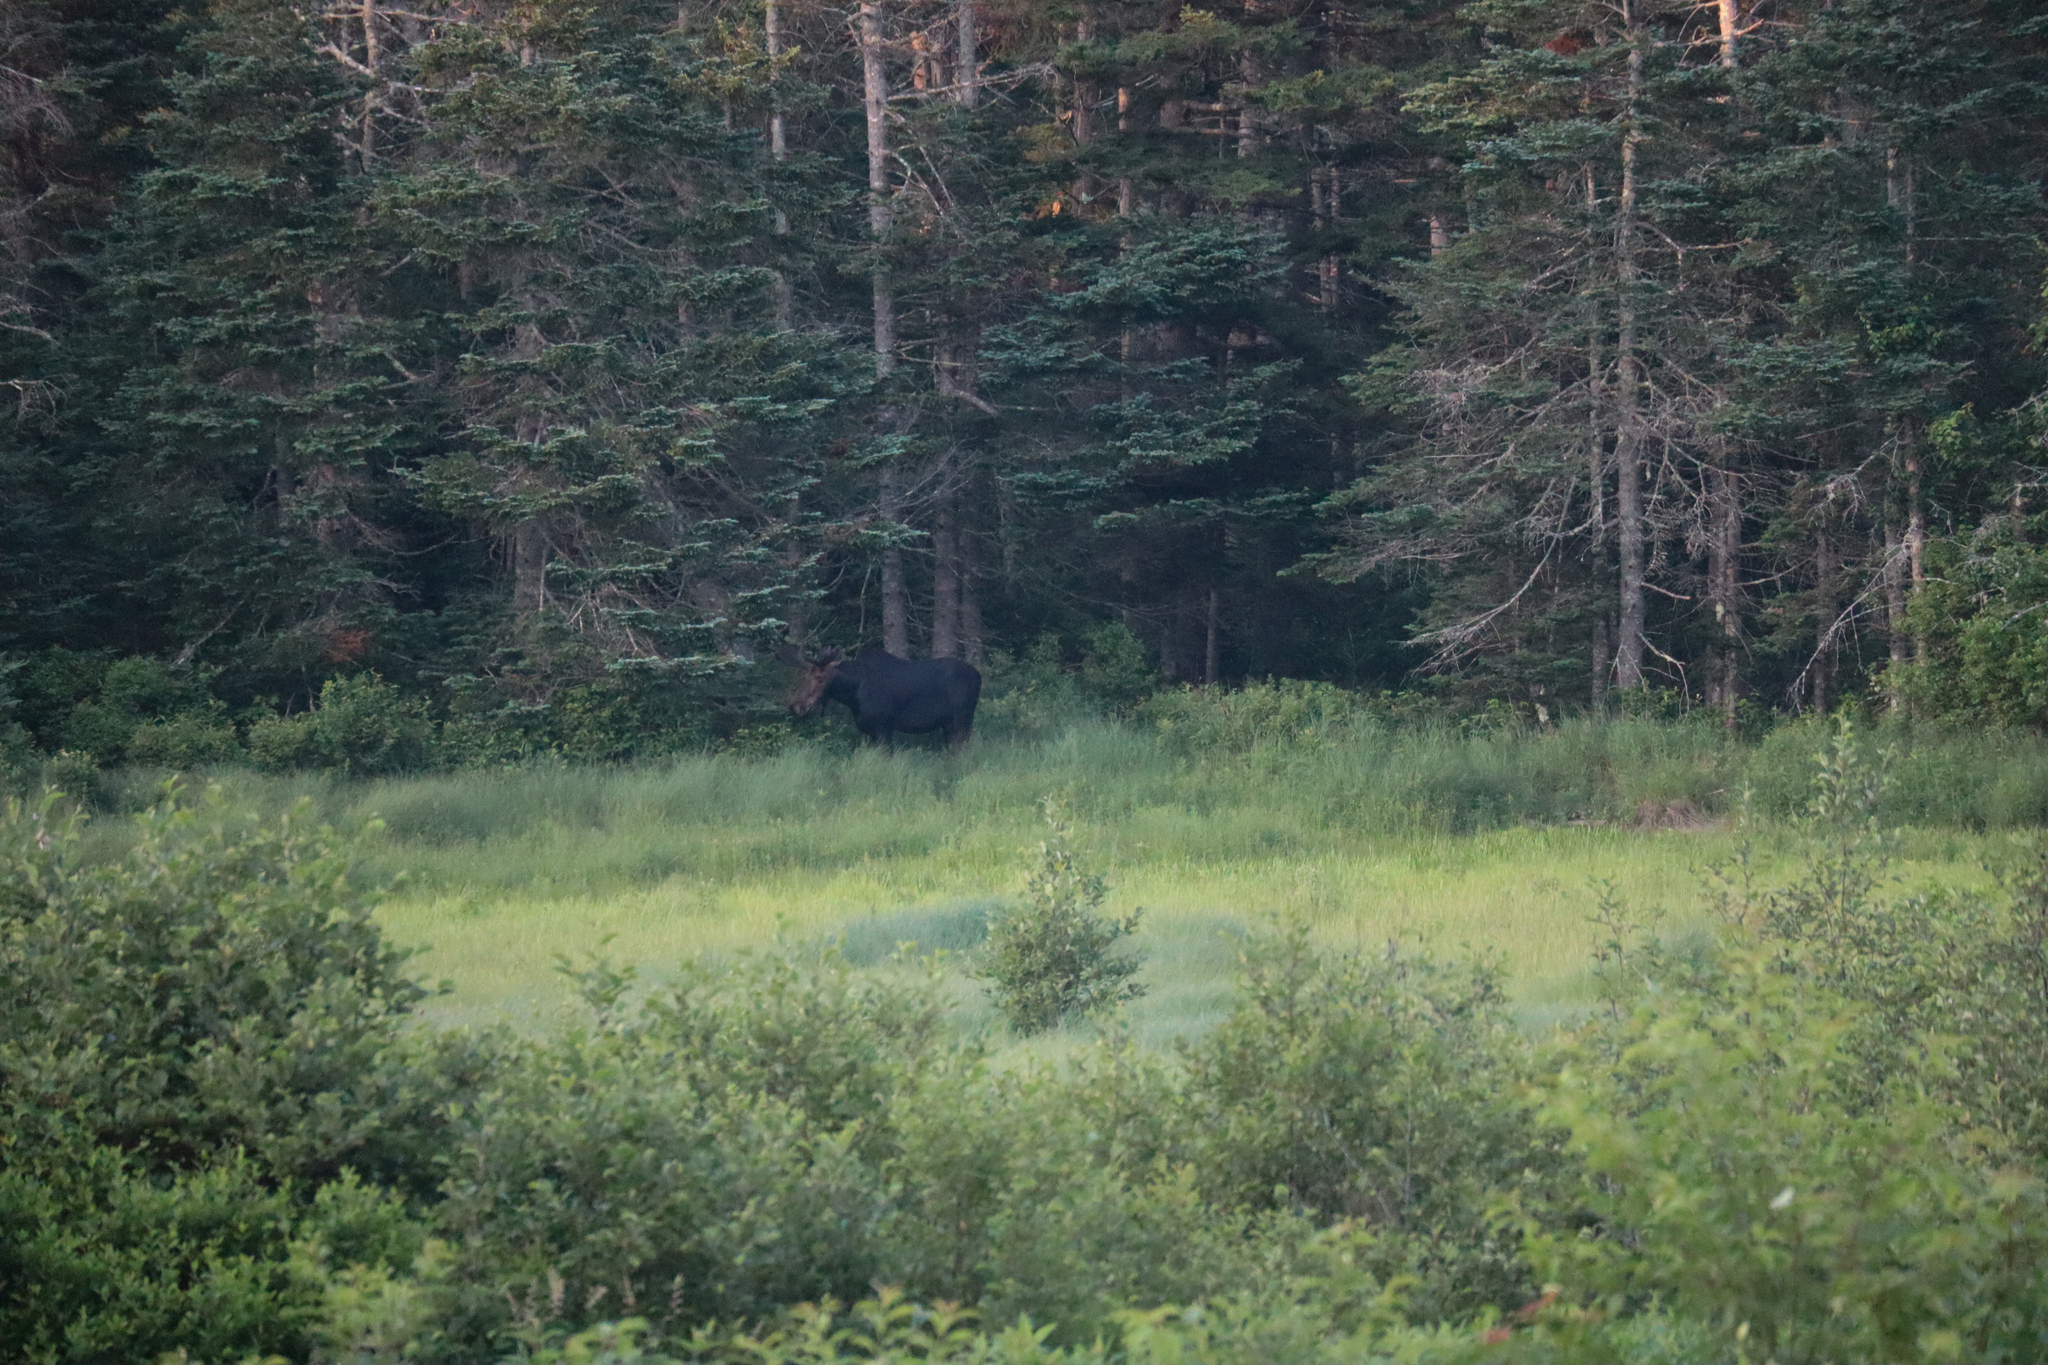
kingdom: Animalia
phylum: Chordata
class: Mammalia
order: Artiodactyla
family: Cervidae
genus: Alces
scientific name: Alces alces
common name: Moose
